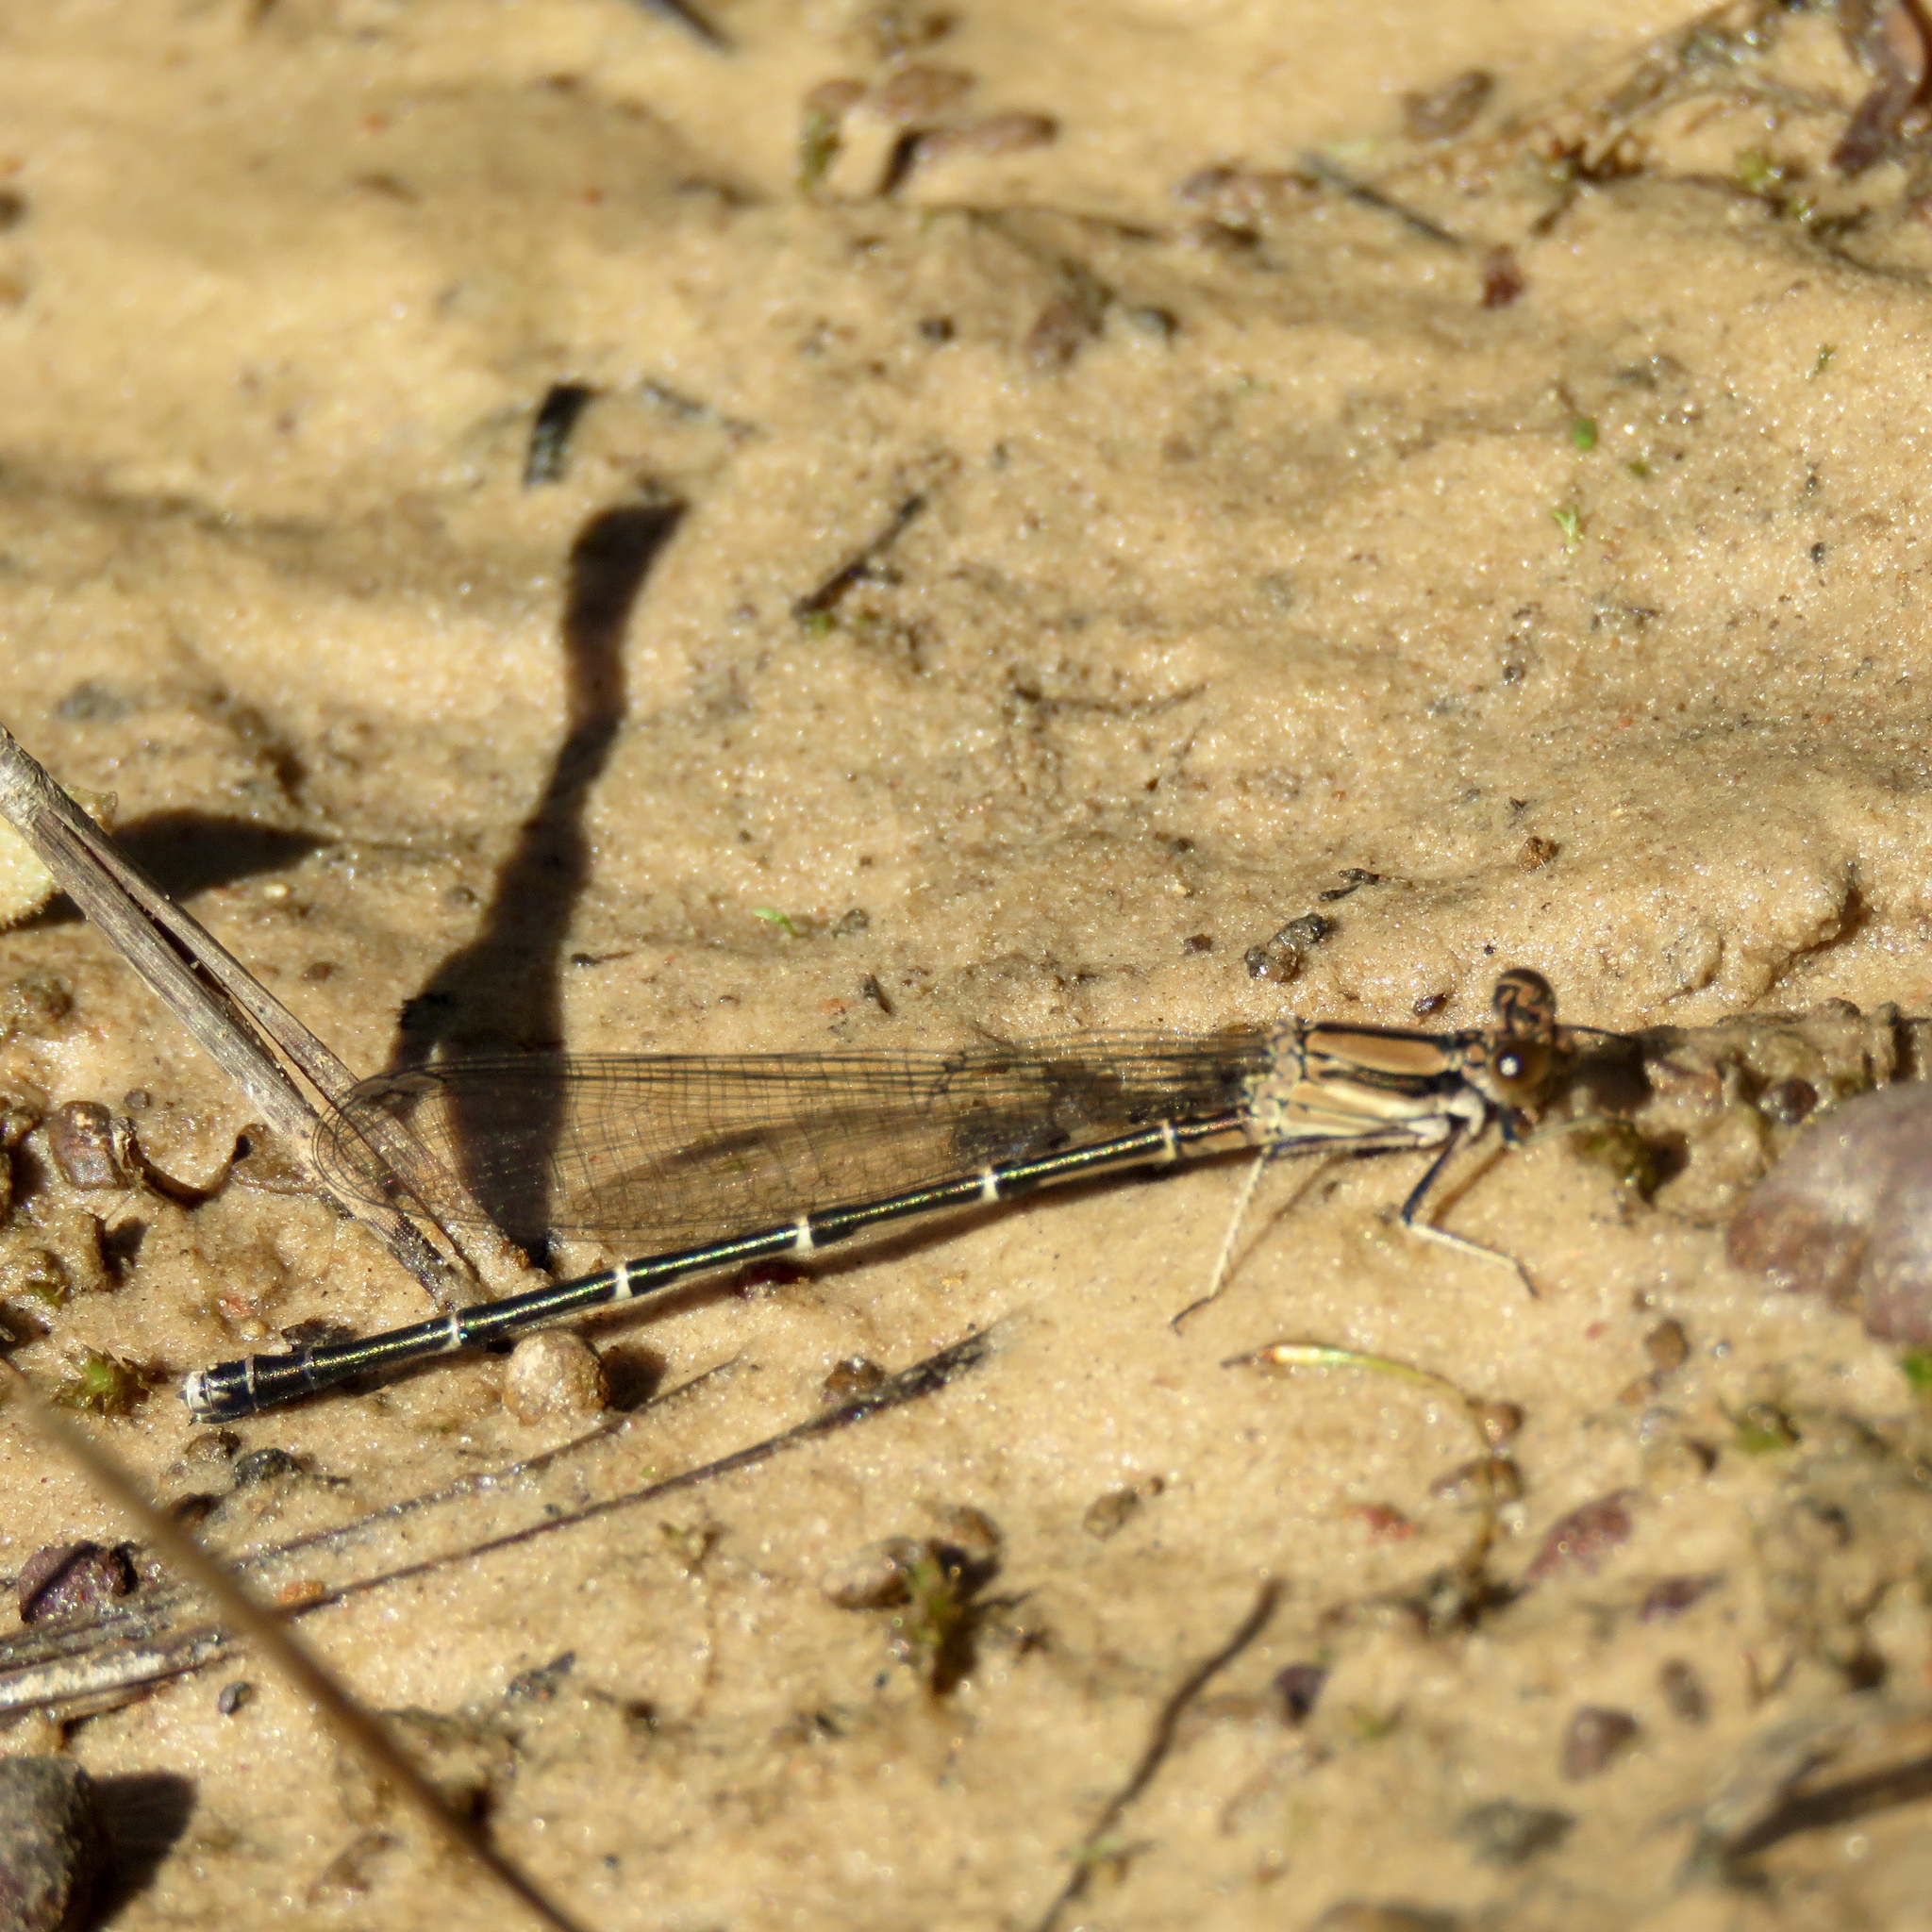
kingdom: Animalia
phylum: Arthropoda
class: Insecta
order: Odonata
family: Coenagrionidae
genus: Argia
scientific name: Argia tibialis
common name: Blue-tipped dancer
